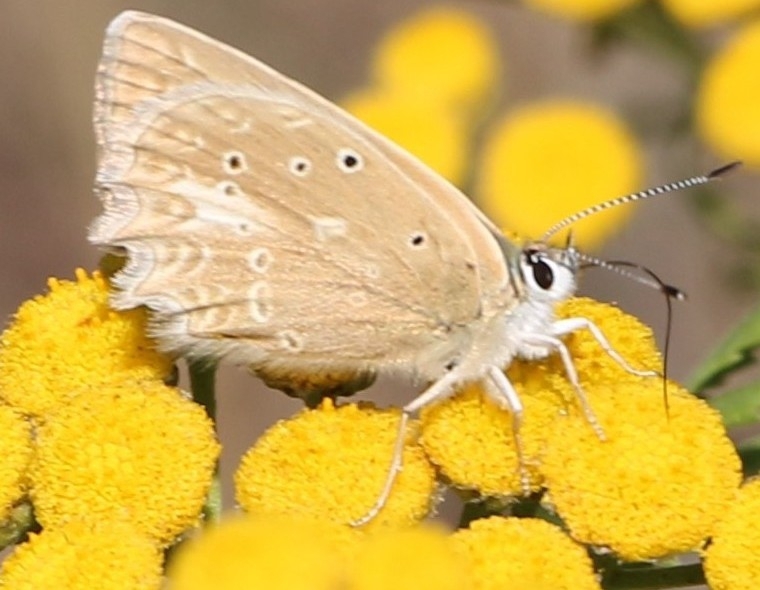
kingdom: Animalia
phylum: Arthropoda
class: Insecta
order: Lepidoptera
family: Lycaenidae
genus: Polyommatus
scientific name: Polyommatus daphnis
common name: Meleager's blue
